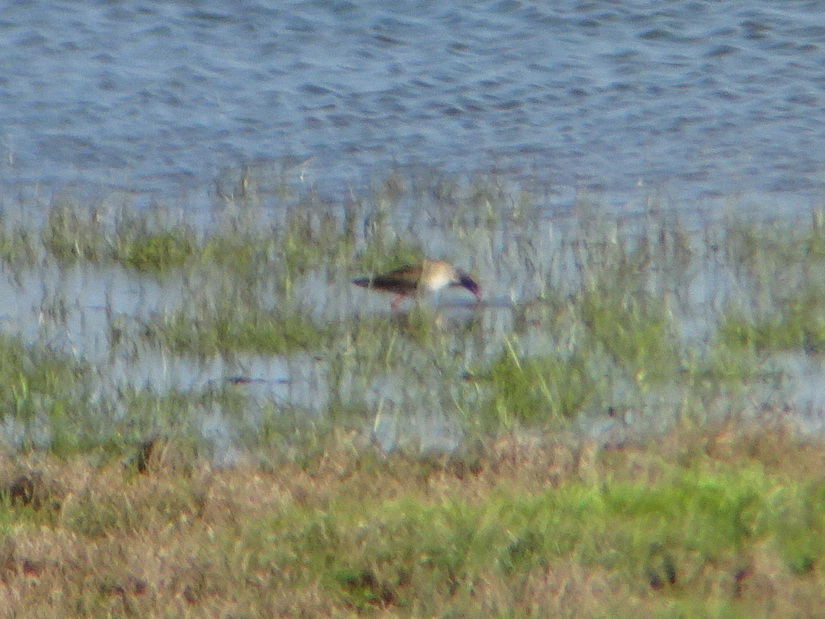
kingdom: Animalia
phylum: Chordata
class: Aves
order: Charadriiformes
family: Scolopacidae
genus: Tringa
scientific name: Tringa totanus
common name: Common redshank
